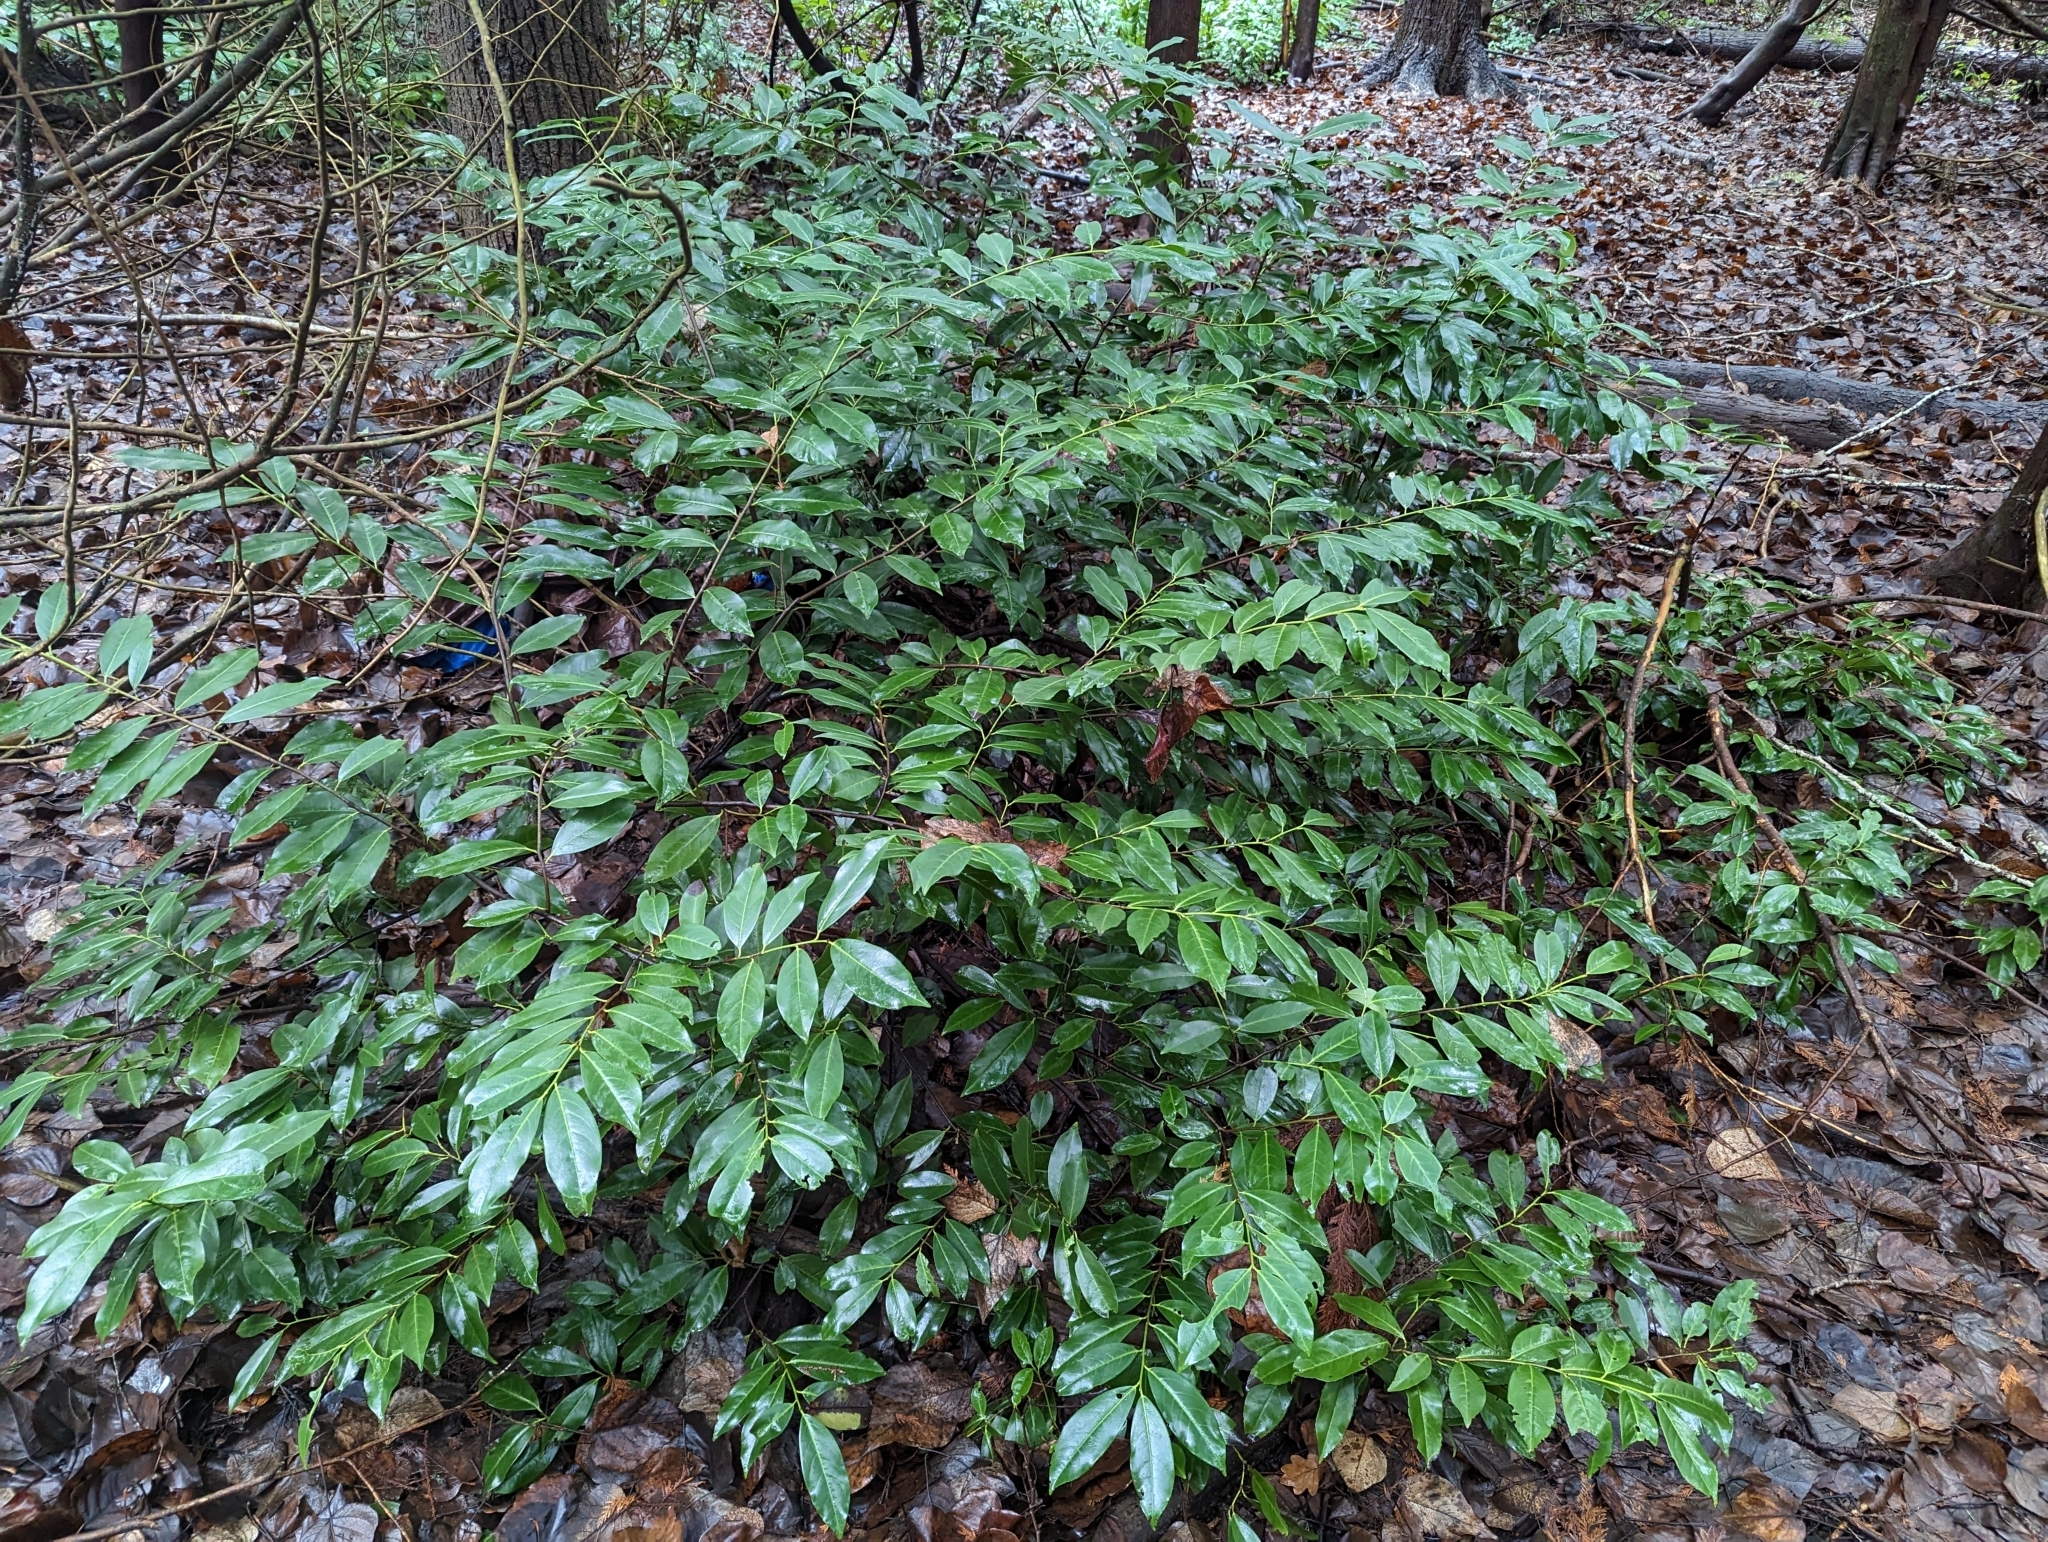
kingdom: Plantae
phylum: Tracheophyta
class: Magnoliopsida
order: Rosales
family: Rosaceae
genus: Prunus
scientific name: Prunus laurocerasus
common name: Cherry laurel
